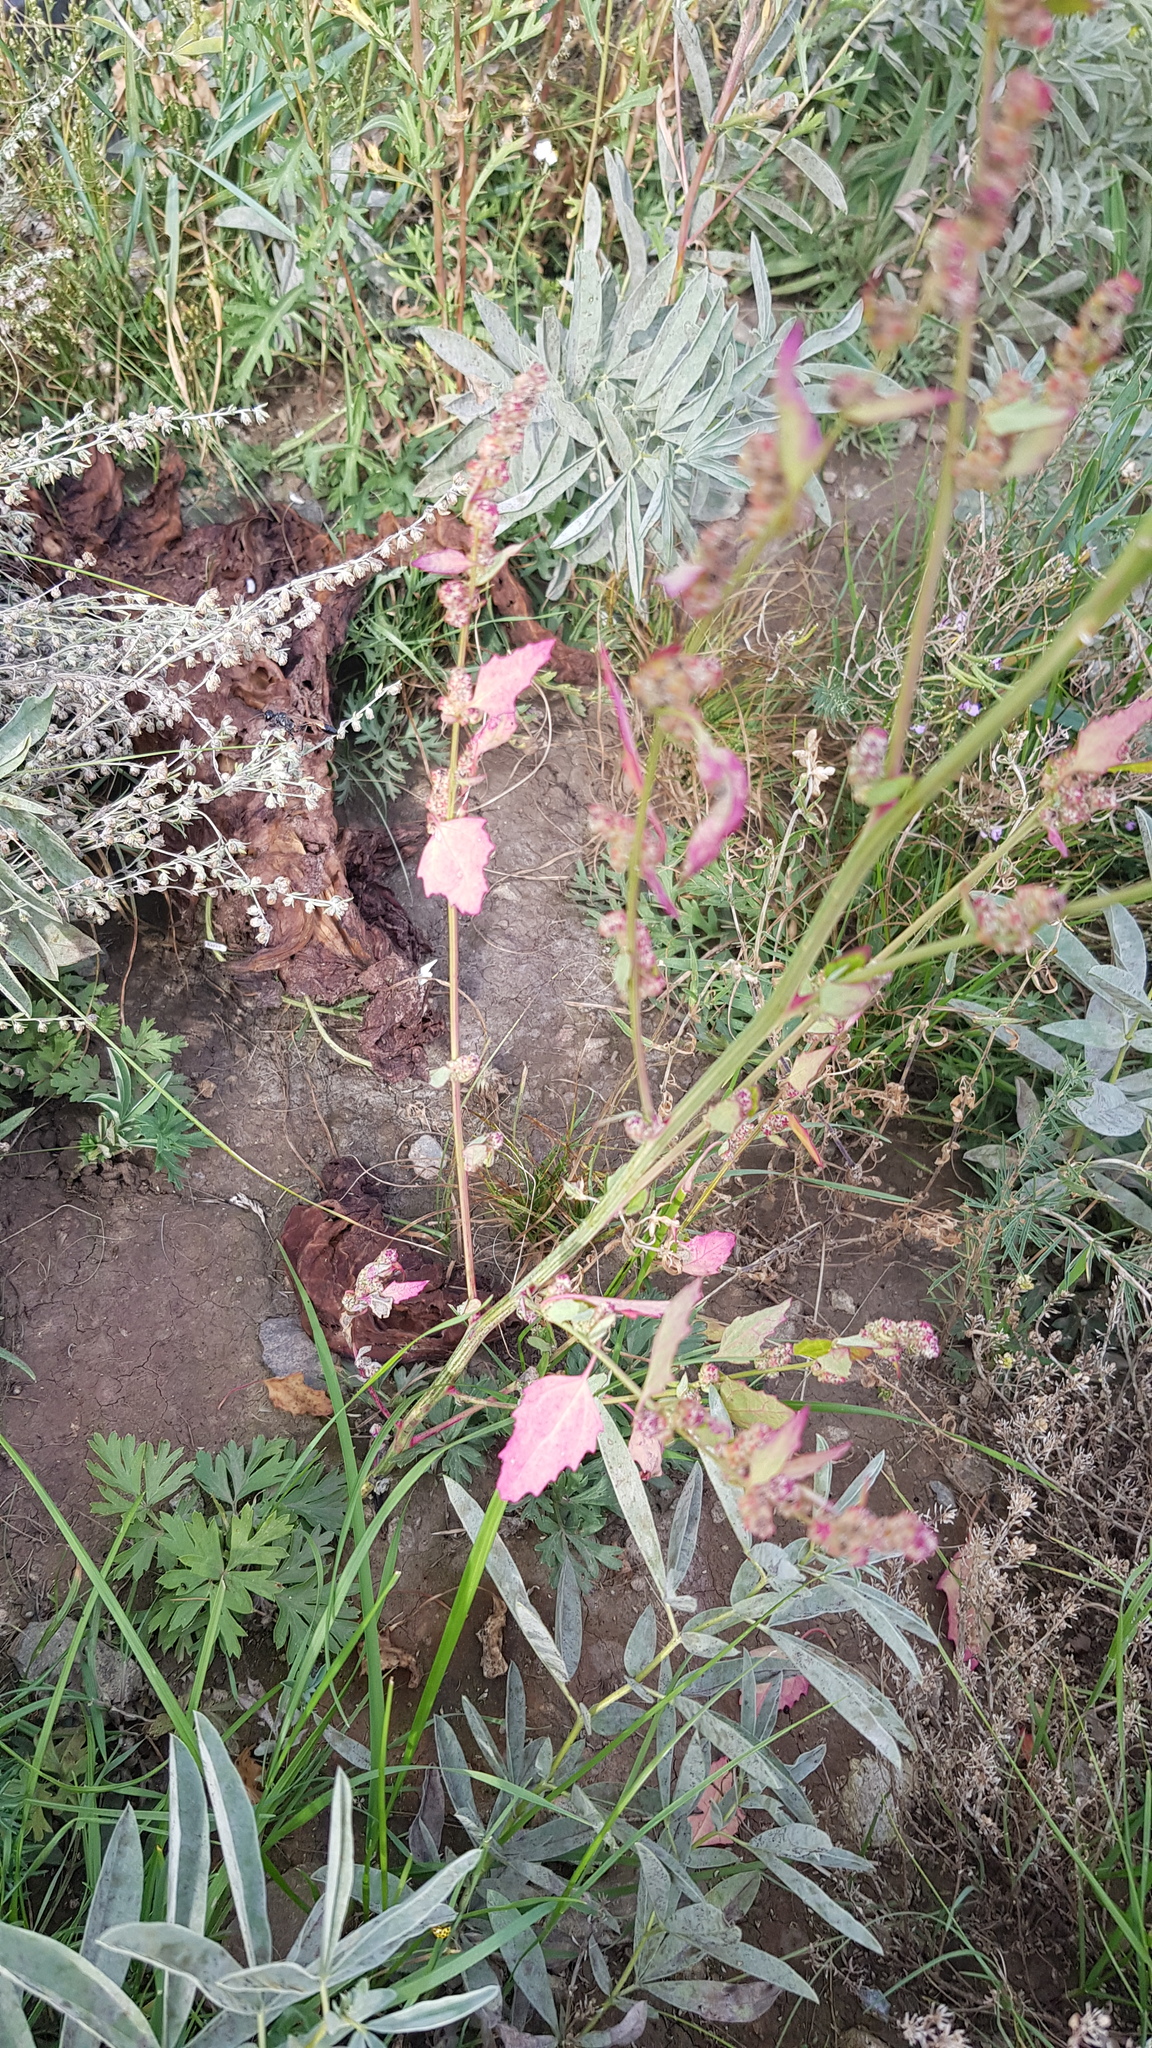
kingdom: Plantae
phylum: Tracheophyta
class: Magnoliopsida
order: Caryophyllales
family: Amaranthaceae
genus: Chenopodium
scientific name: Chenopodium album
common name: Fat-hen
